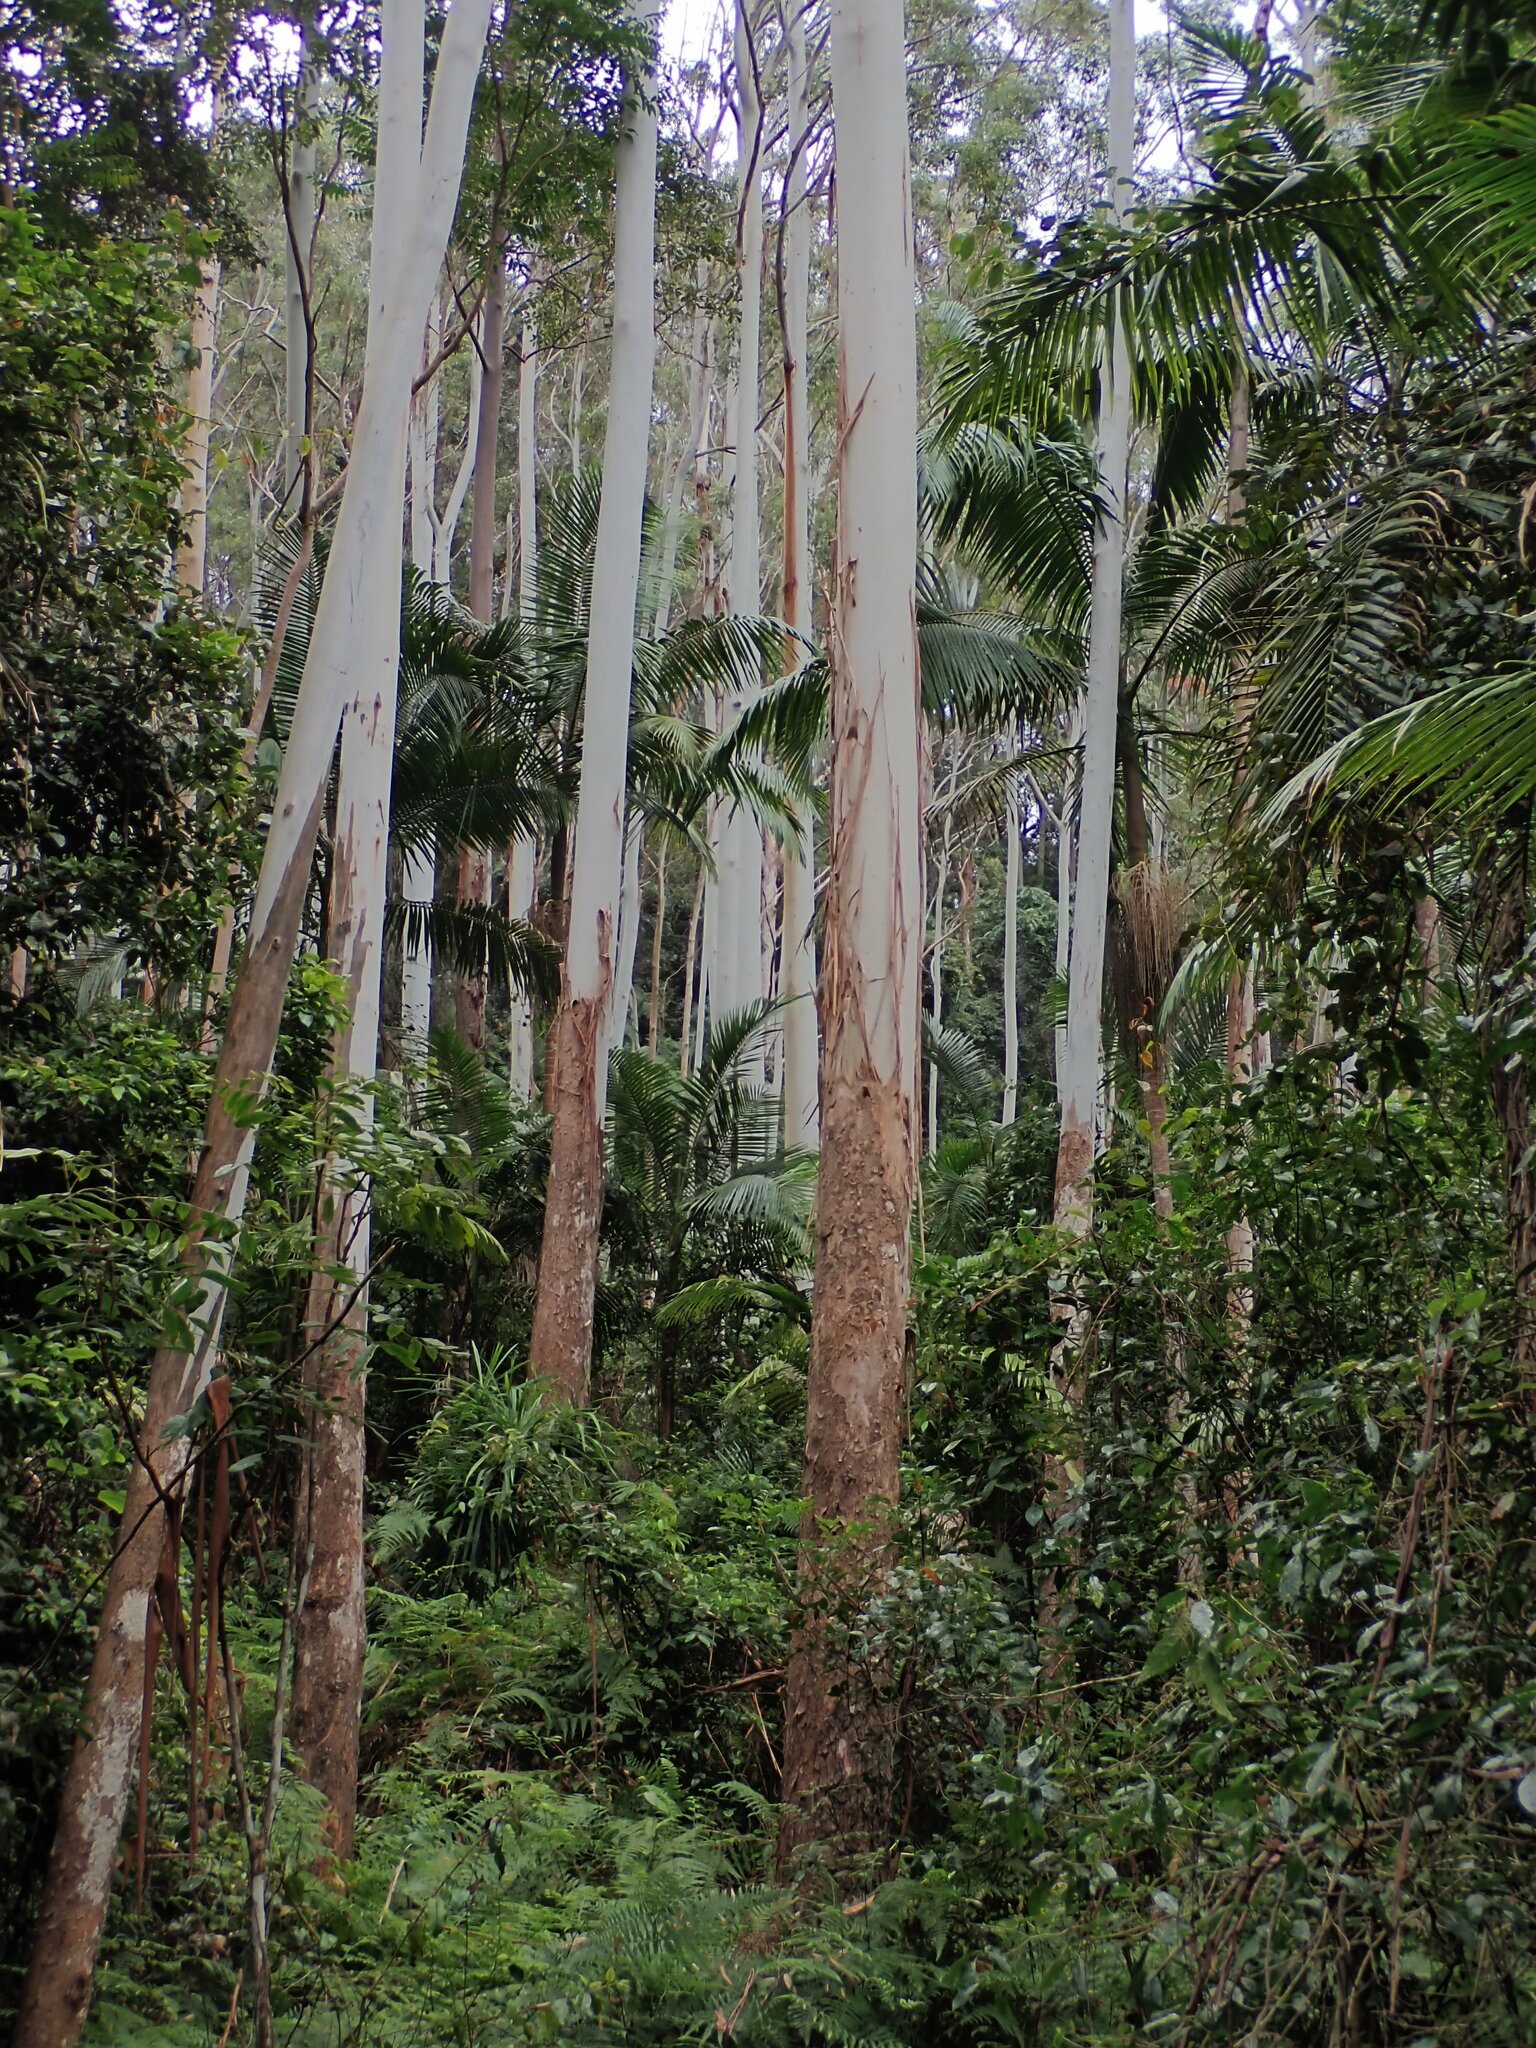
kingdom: Plantae
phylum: Tracheophyta
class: Magnoliopsida
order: Myrtales
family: Myrtaceae
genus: Eucalyptus
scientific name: Eucalyptus grandis
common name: Grand eucalyptus
